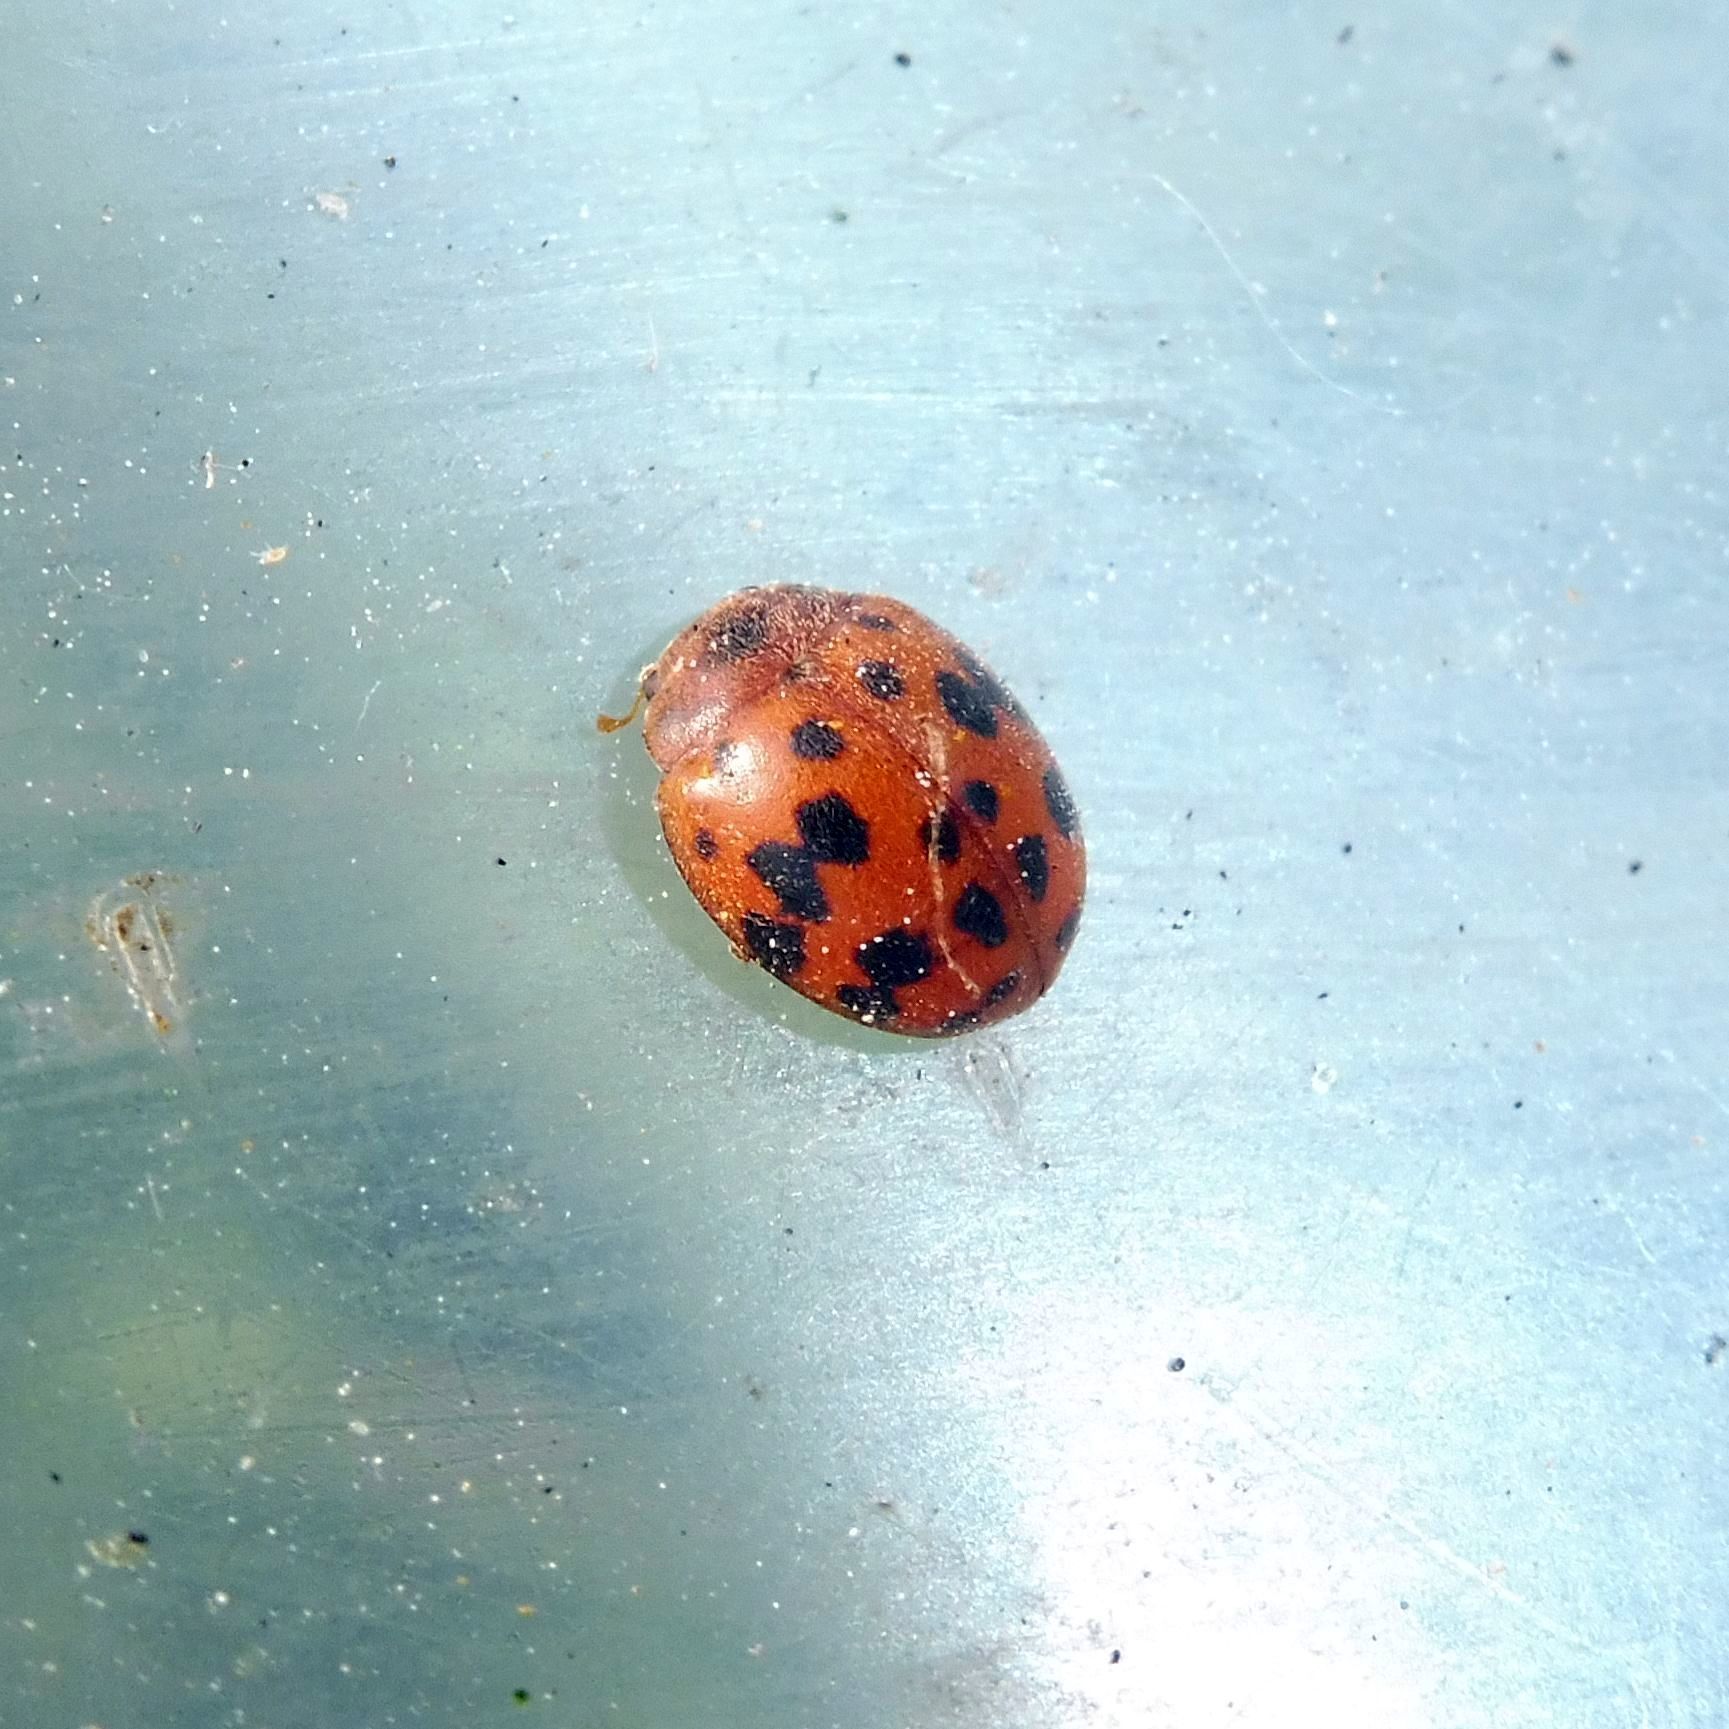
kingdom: Animalia
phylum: Arthropoda
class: Insecta
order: Coleoptera
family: Coccinellidae
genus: Subcoccinella
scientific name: Subcoccinella vigintiquatuorpunctata
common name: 24-spot ladybird
